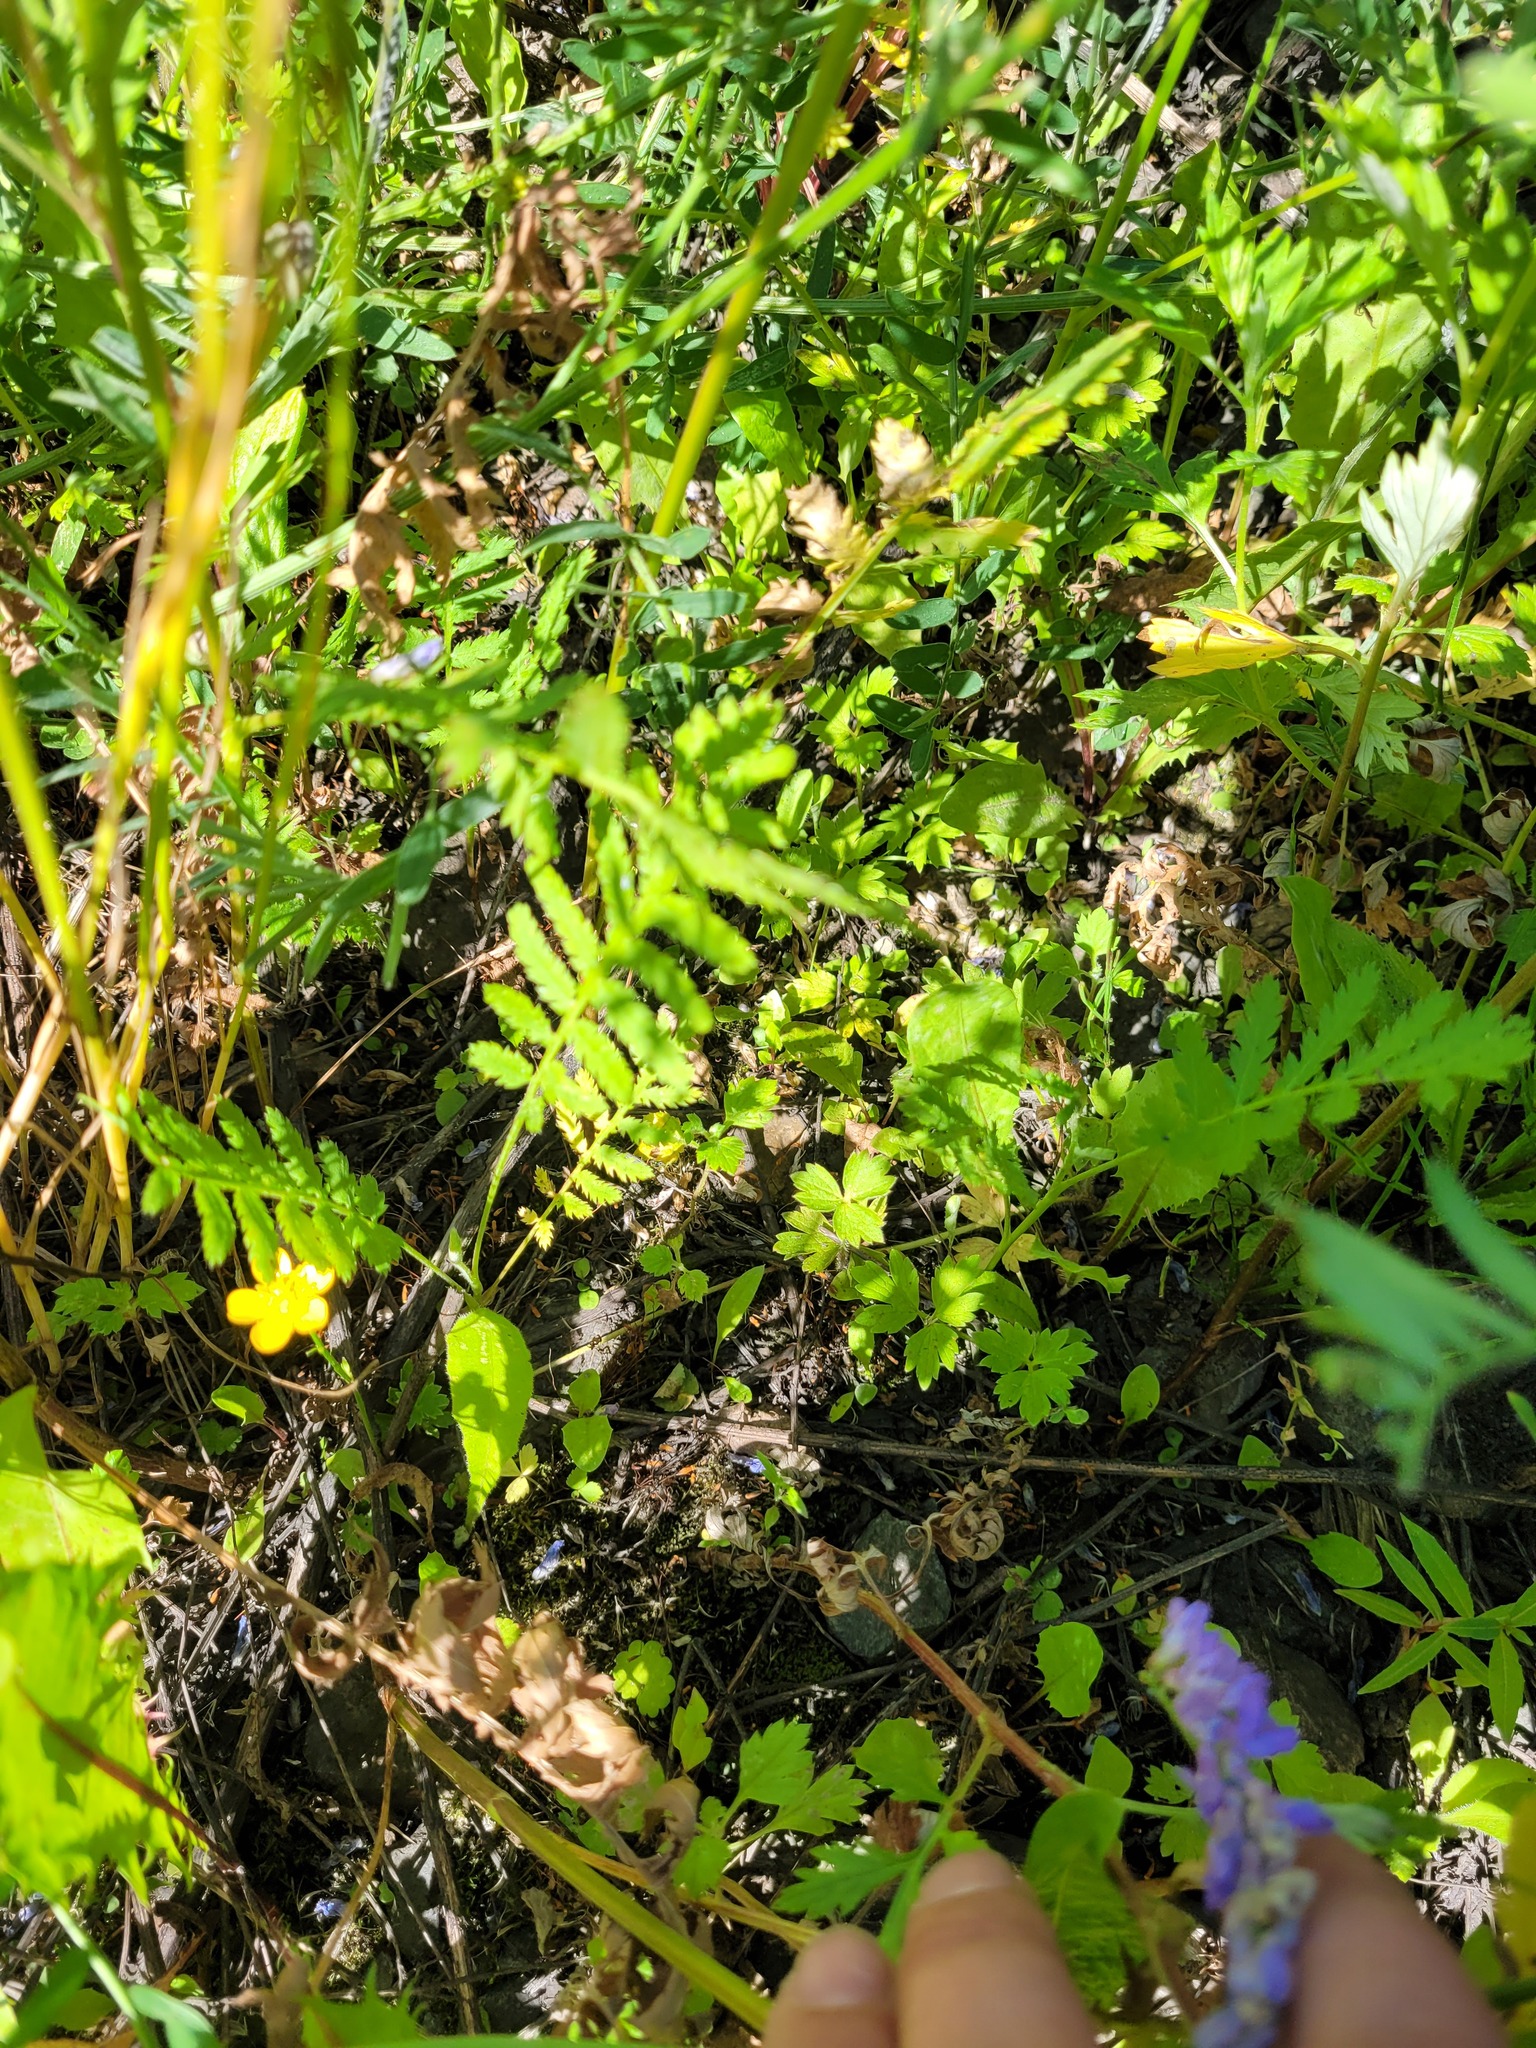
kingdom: Plantae
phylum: Tracheophyta
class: Magnoliopsida
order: Ranunculales
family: Ranunculaceae
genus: Ranunculus
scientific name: Ranunculus repens
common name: Creeping buttercup
